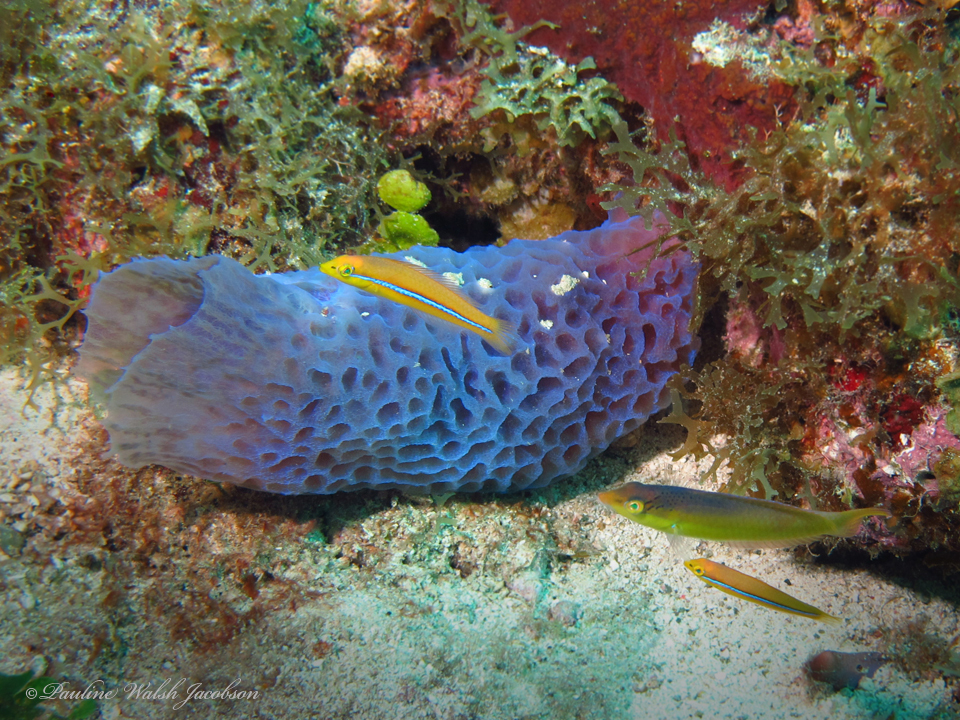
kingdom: Animalia
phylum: Chordata
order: Perciformes
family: Labridae
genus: Halichoeres
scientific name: Halichoeres garnoti
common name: Yellowhead wrasse
